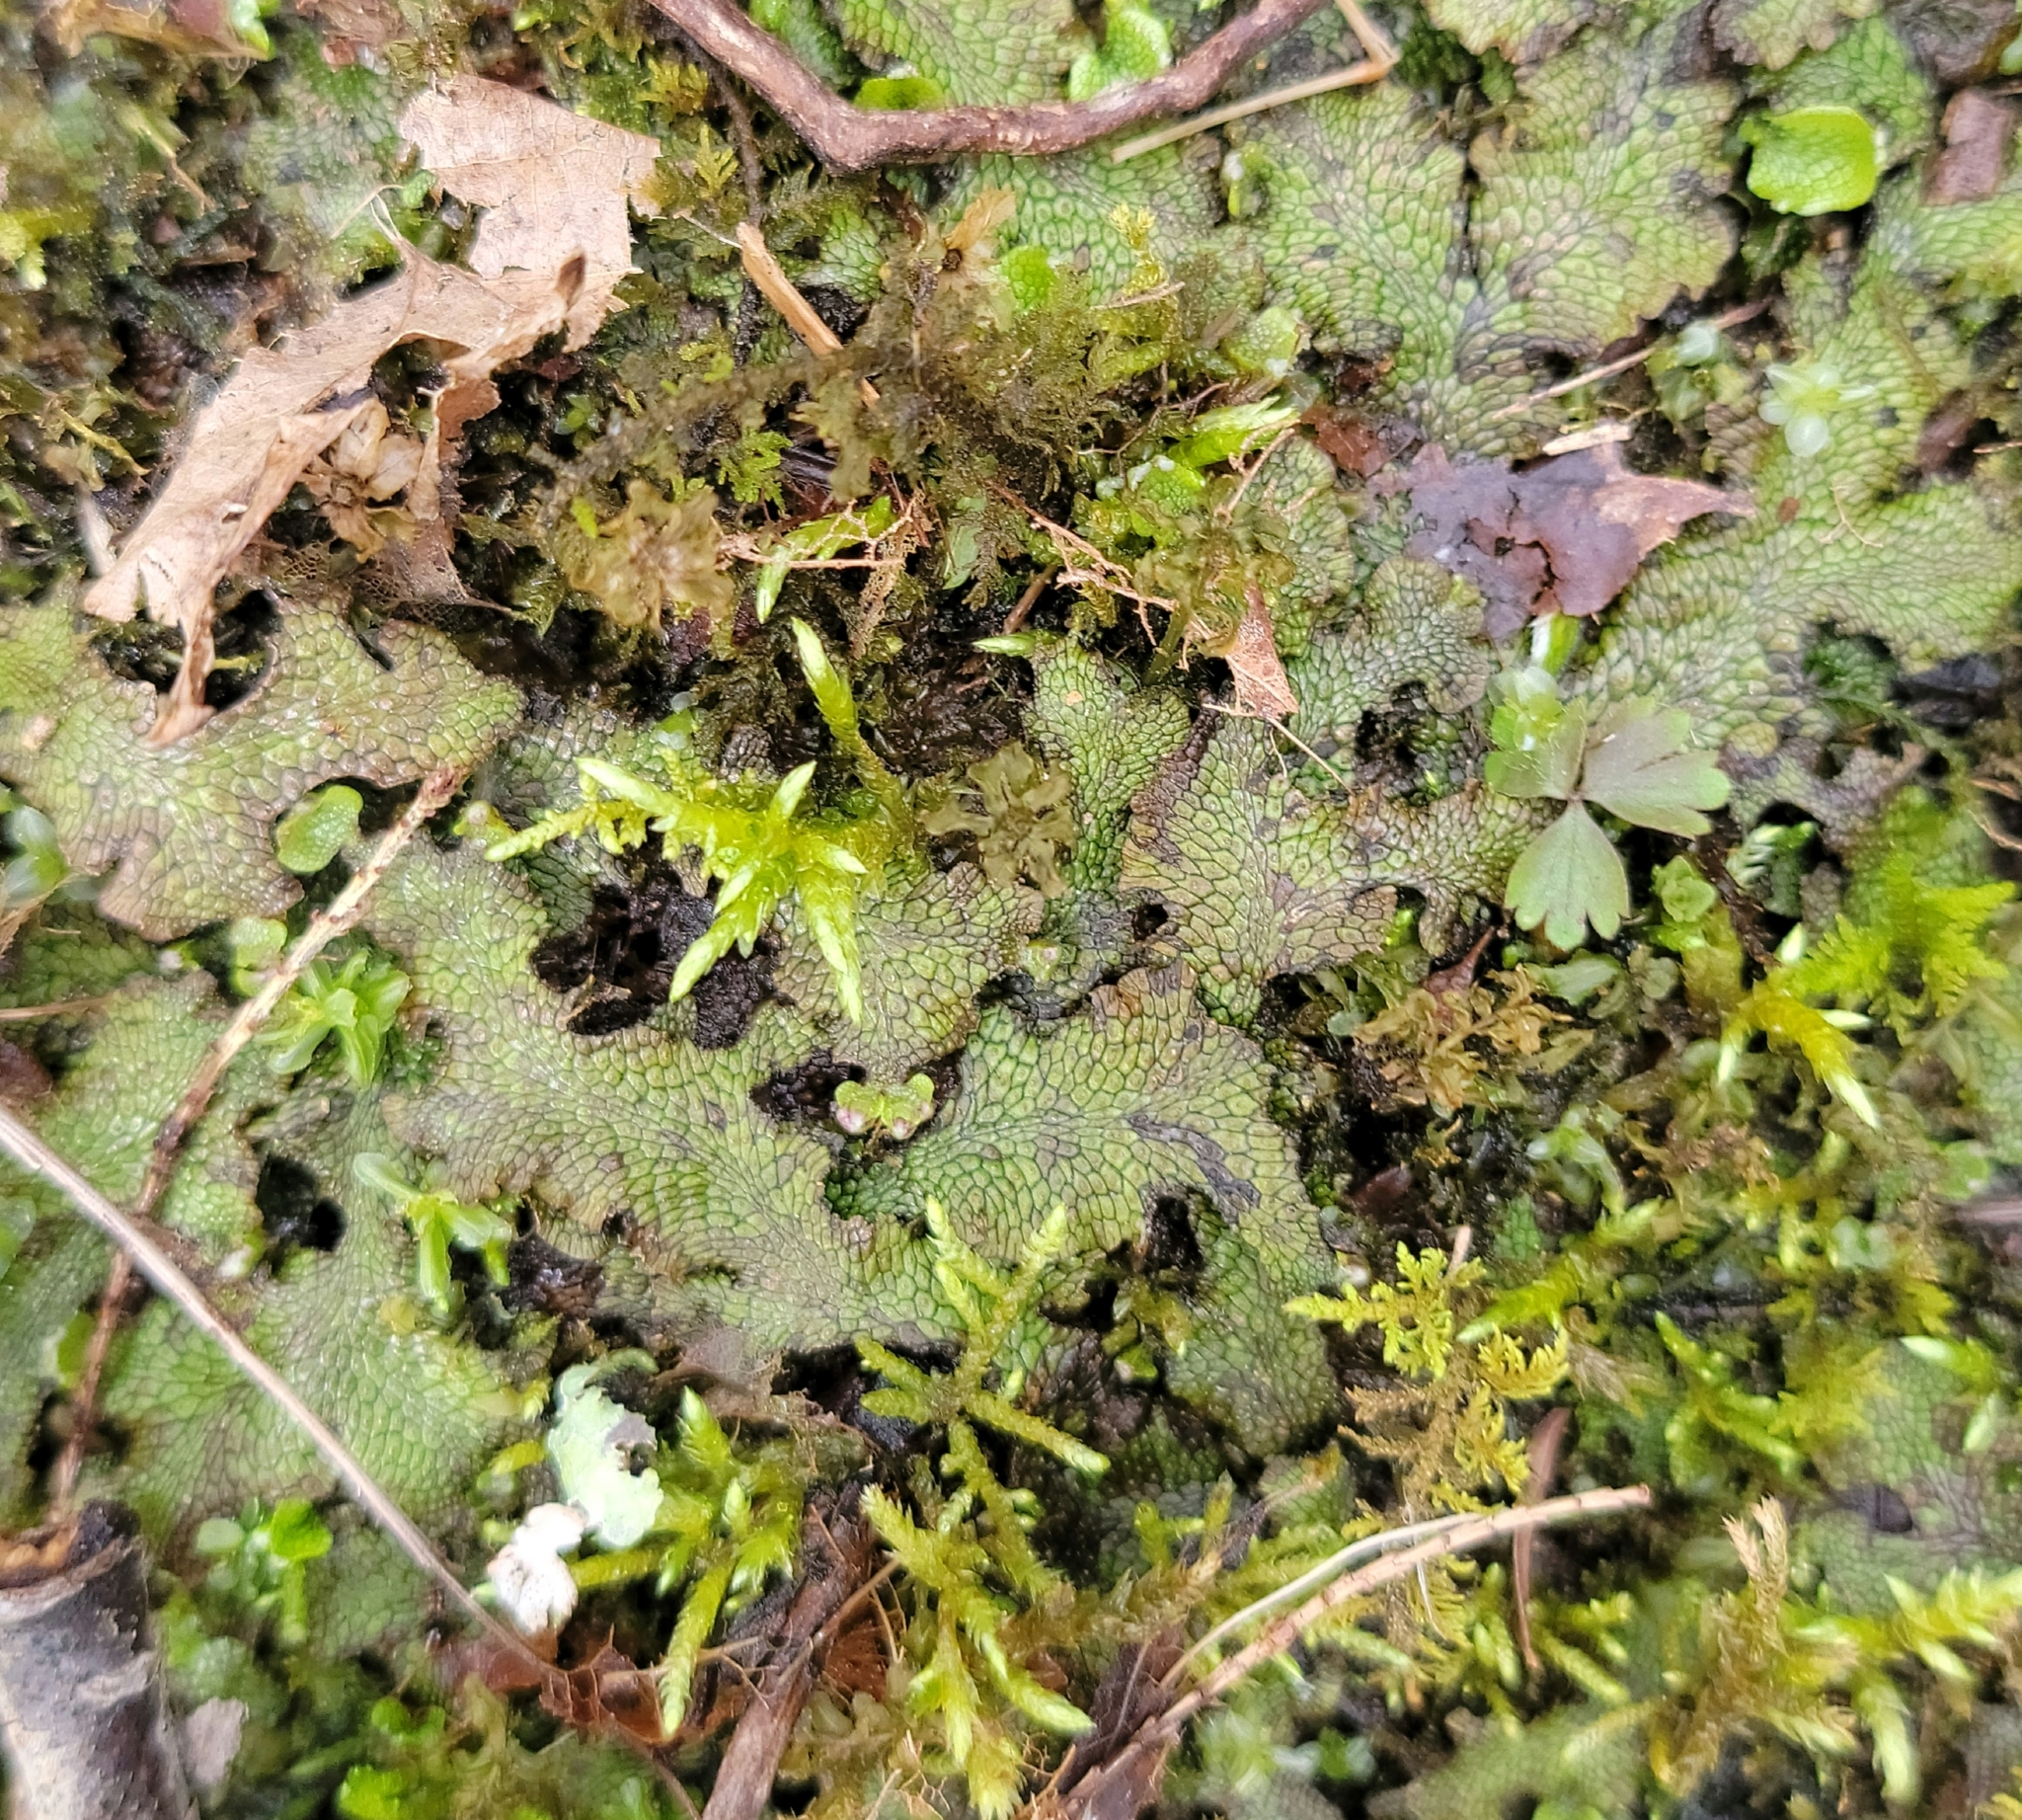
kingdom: Plantae
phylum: Marchantiophyta
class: Marchantiopsida
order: Marchantiales
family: Conocephalaceae
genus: Conocephalum
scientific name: Conocephalum salebrosum
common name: Cat-tongue liverwort
